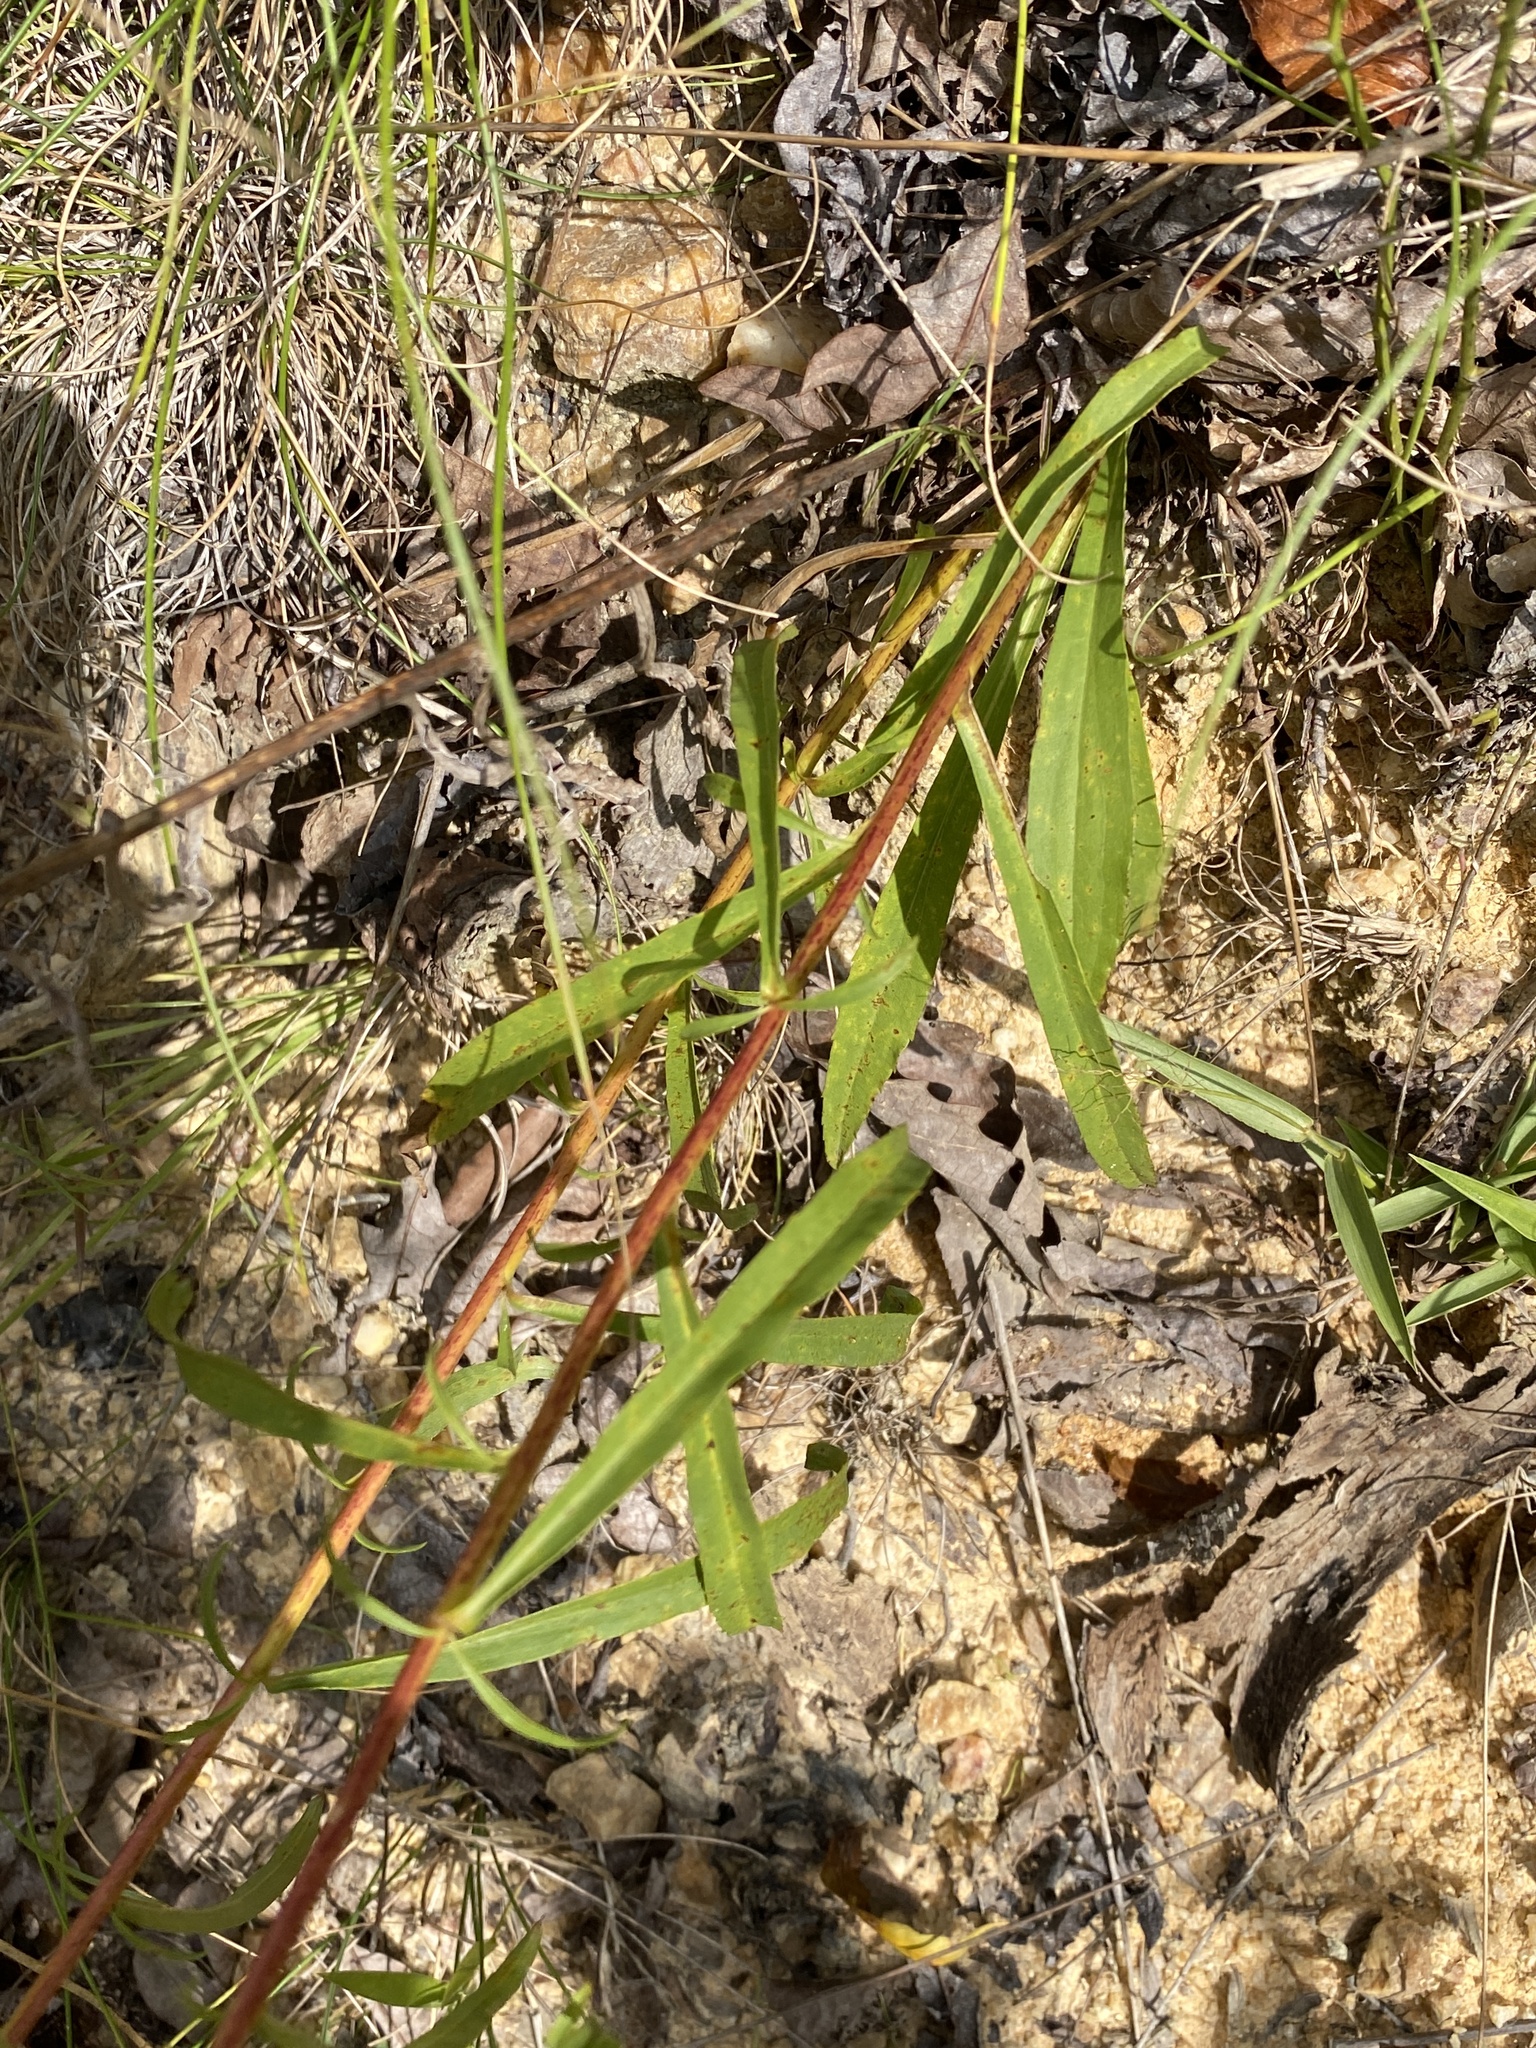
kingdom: Plantae
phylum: Tracheophyta
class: Magnoliopsida
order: Asterales
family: Asteraceae
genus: Solidago
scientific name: Solidago pinetorum
